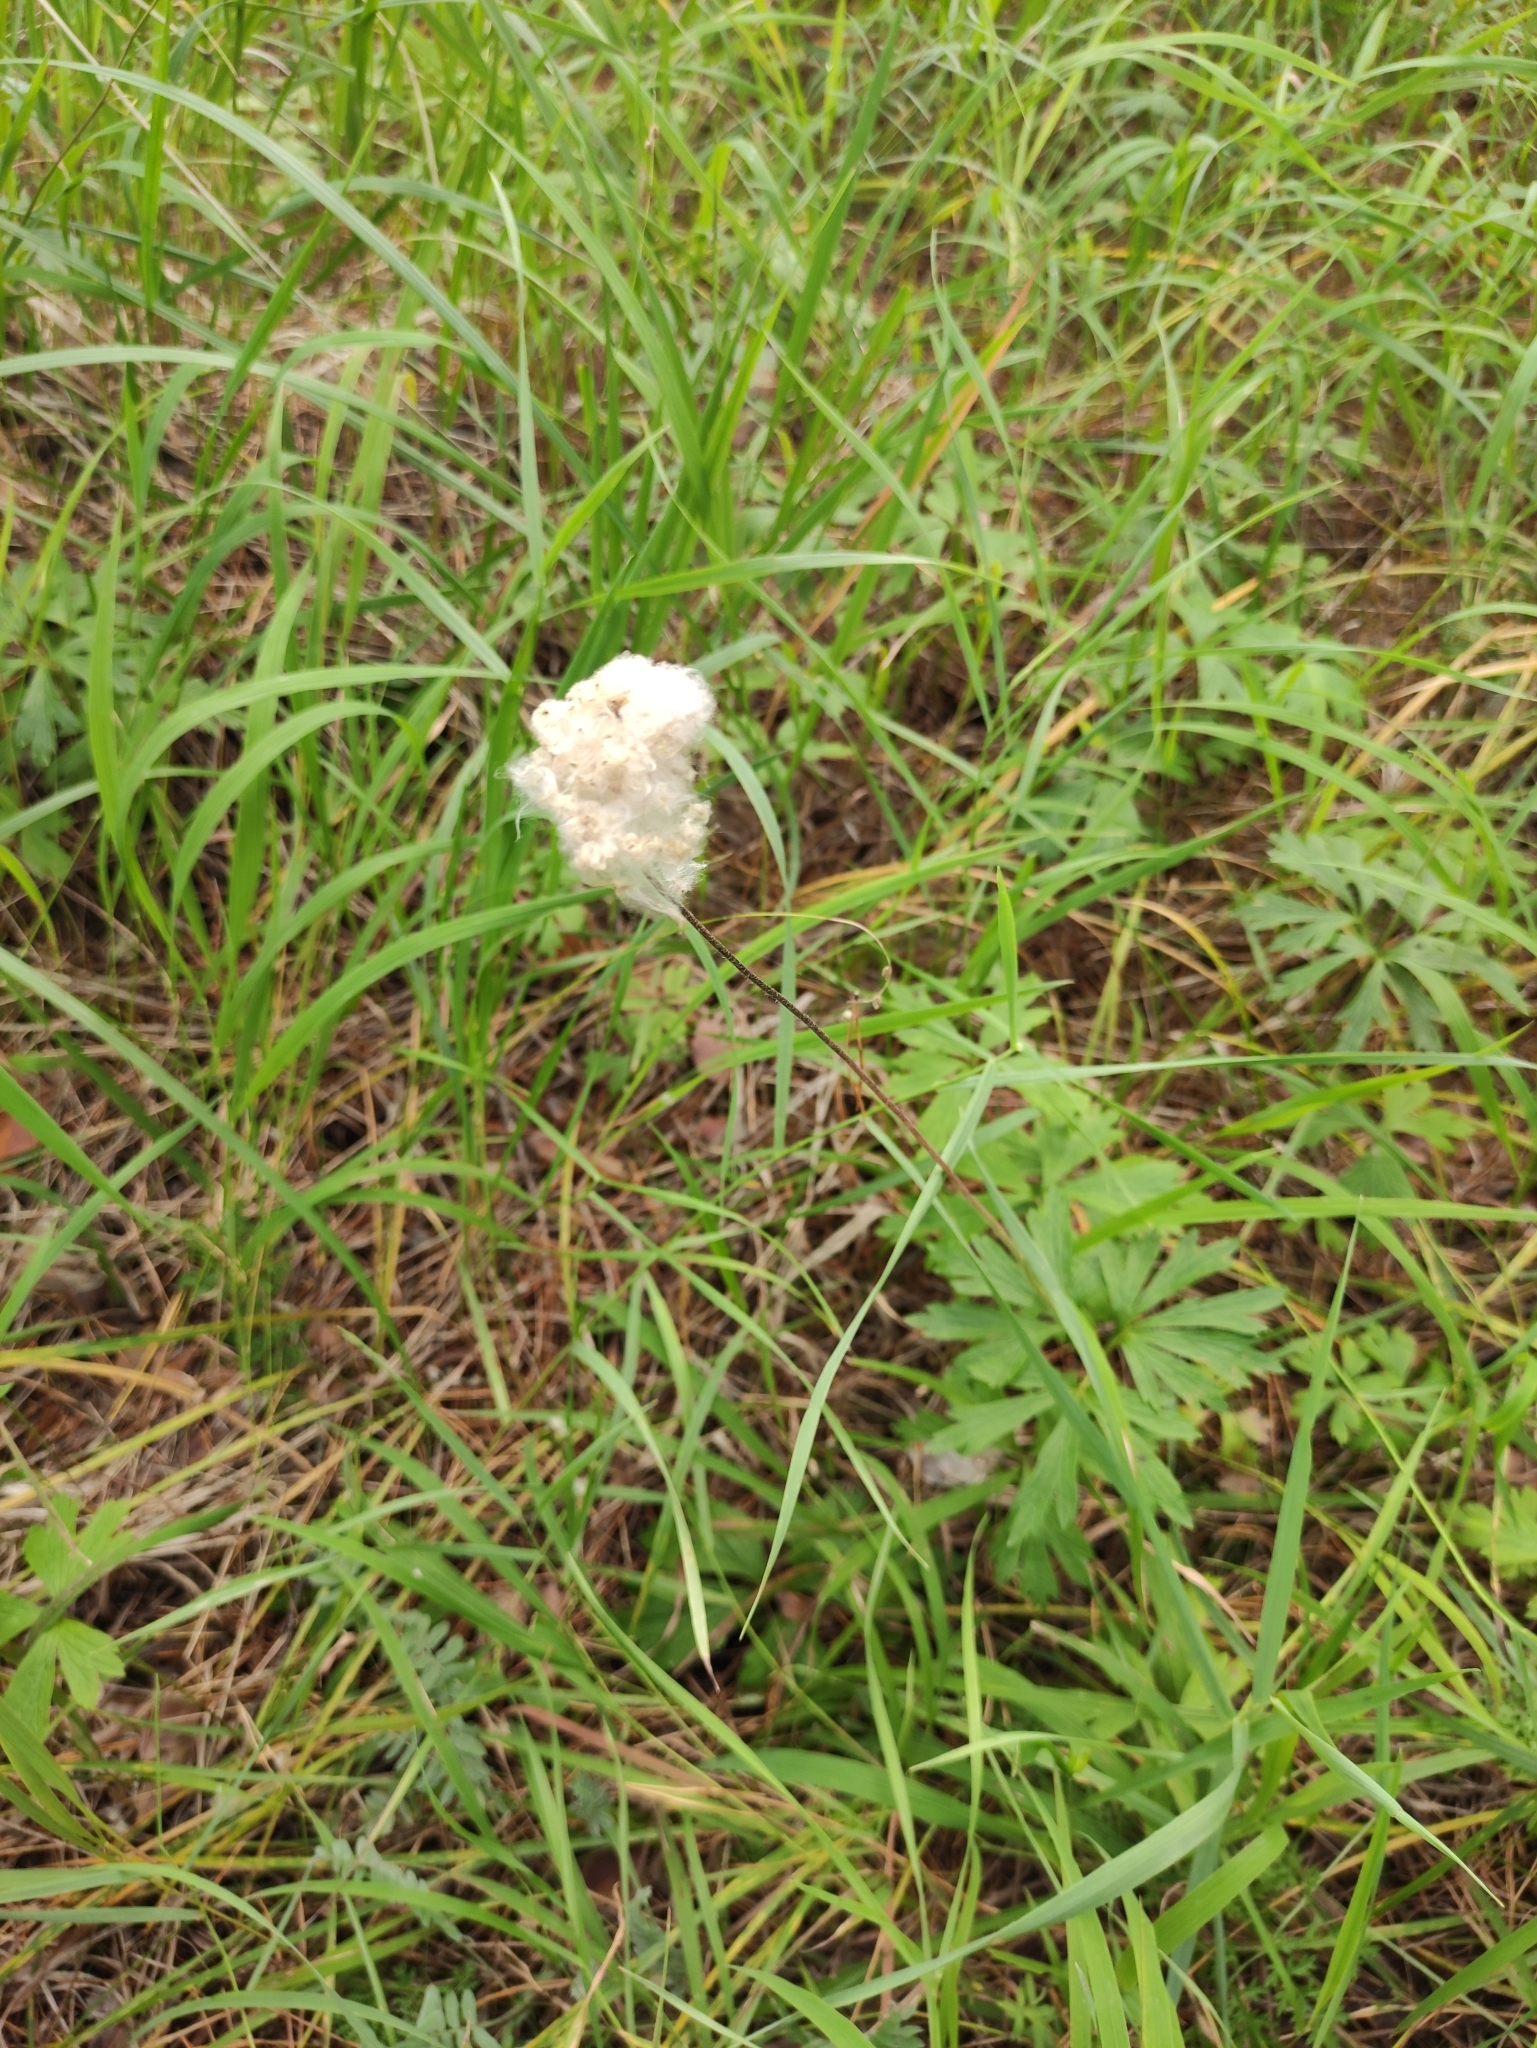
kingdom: Plantae
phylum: Tracheophyta
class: Magnoliopsida
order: Ranunculales
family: Ranunculaceae
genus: Anemone
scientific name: Anemone sylvestris
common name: Snowdrop anemone
